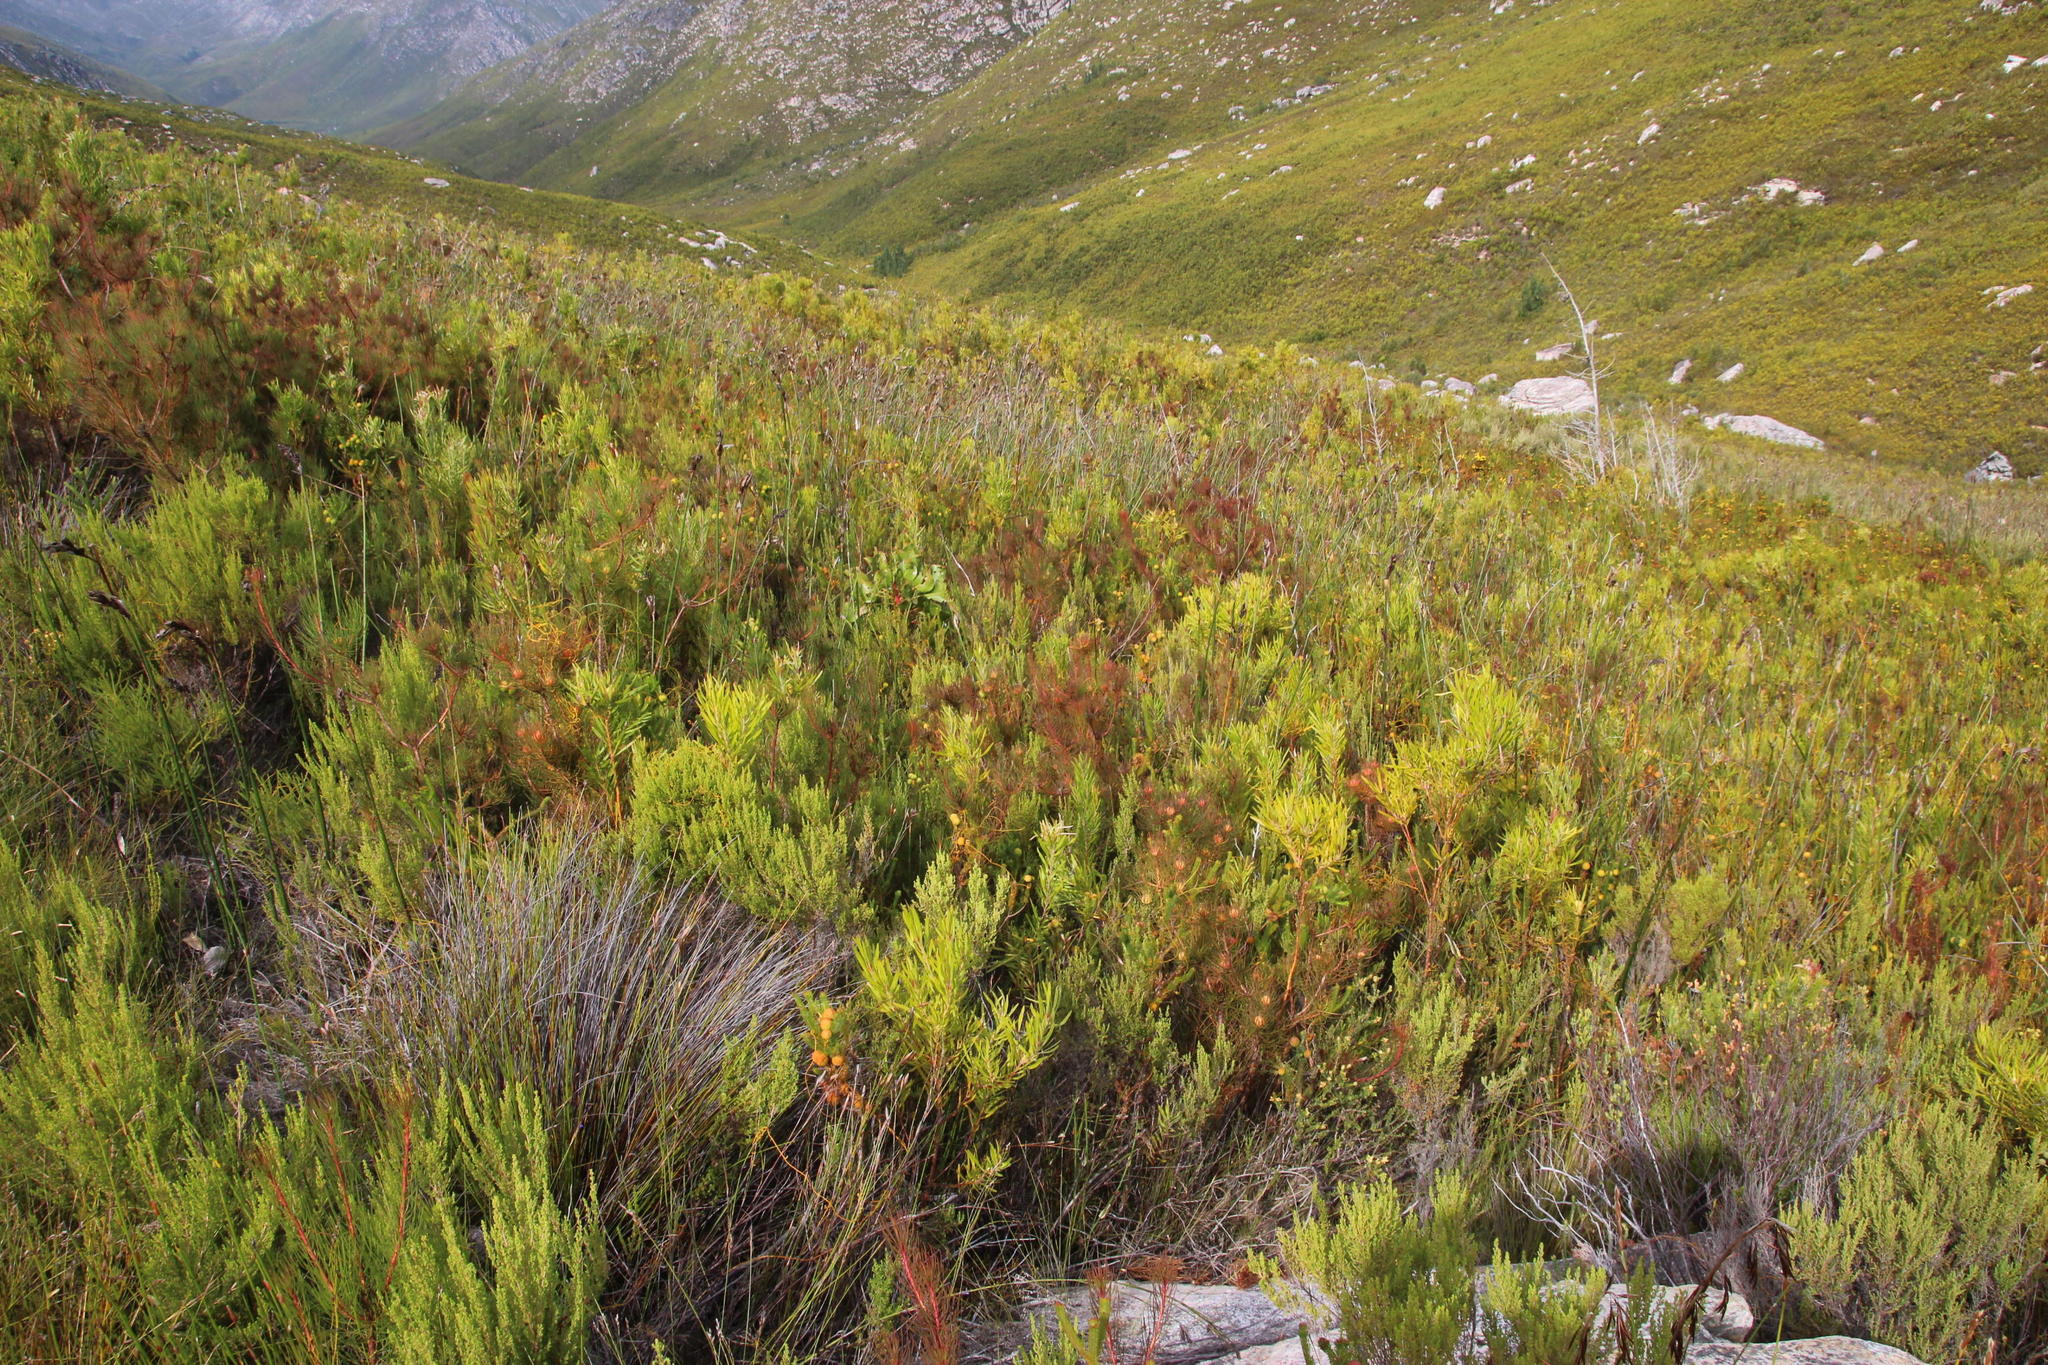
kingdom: Plantae
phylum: Tracheophyta
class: Magnoliopsida
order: Proteales
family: Proteaceae
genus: Aulax
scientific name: Aulax cancellata
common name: Channel-leaf featherbush
